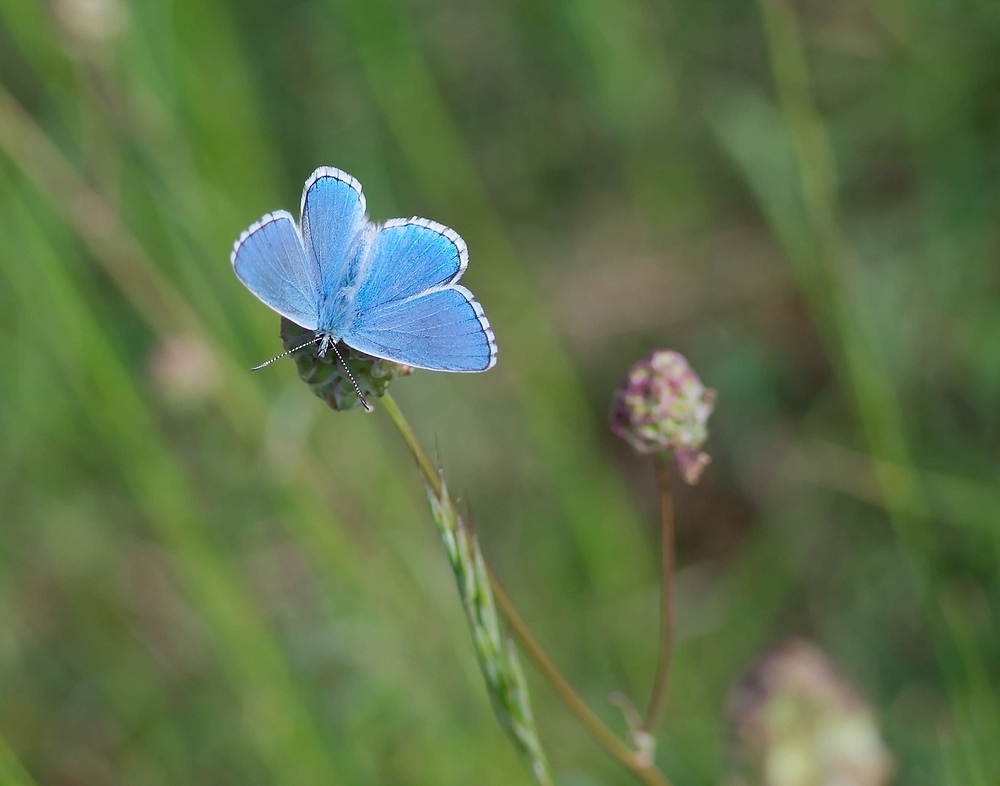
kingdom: Animalia
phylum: Arthropoda
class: Insecta
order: Lepidoptera
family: Lycaenidae
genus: Lysandra
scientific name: Lysandra bellargus
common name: Adonis blue
